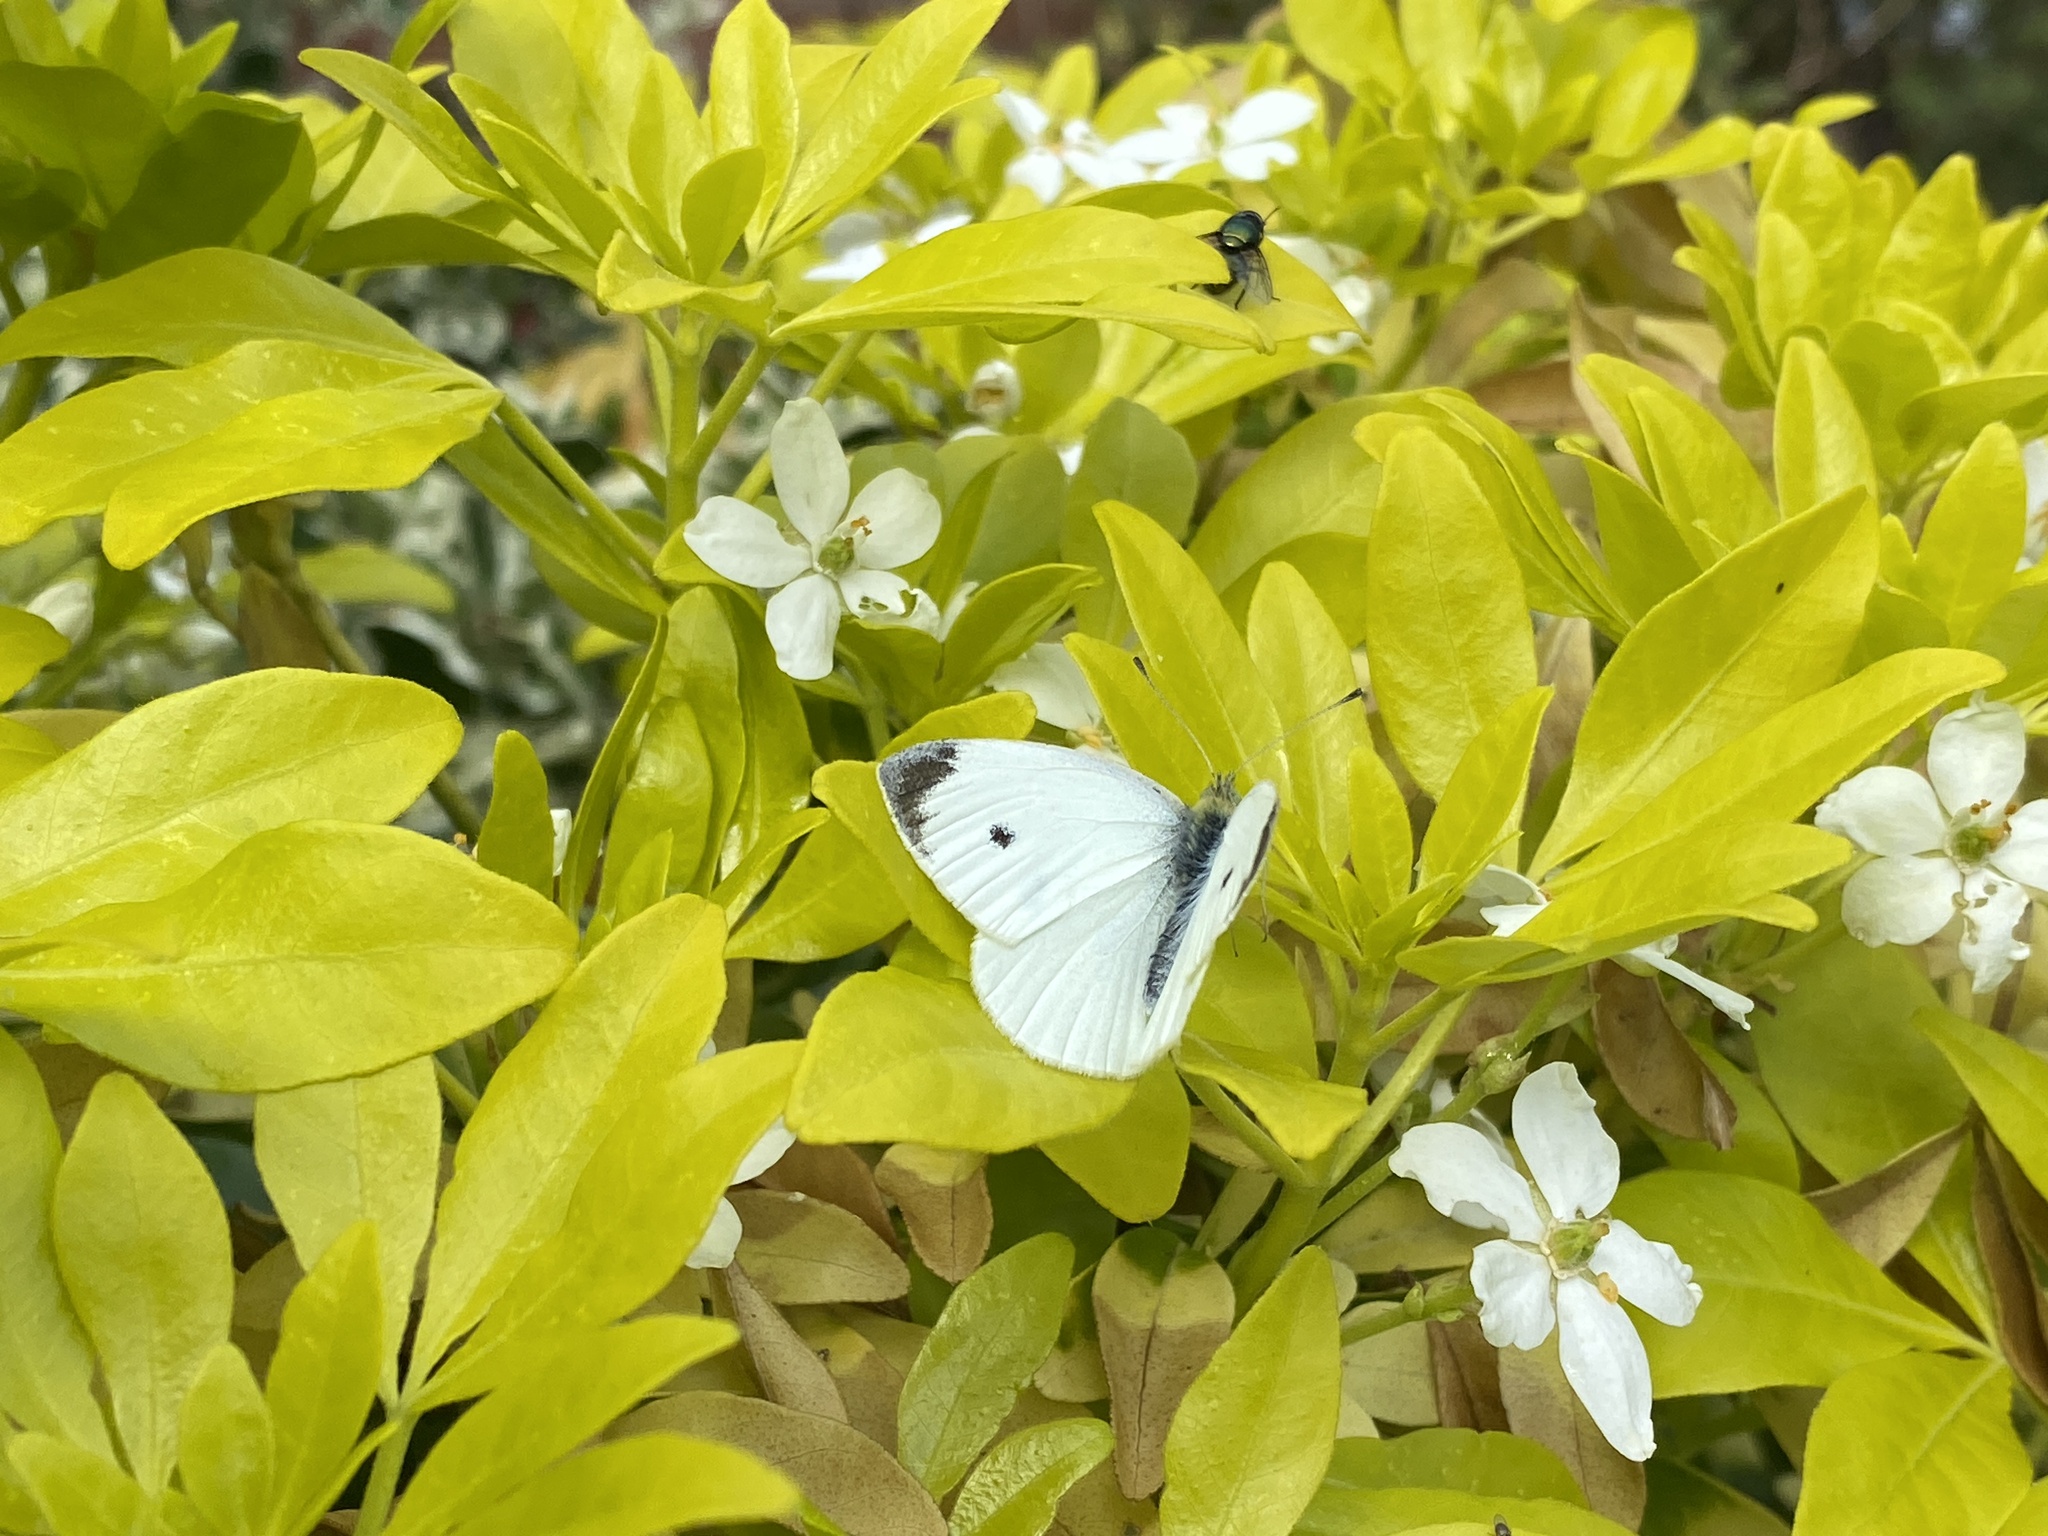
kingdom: Animalia
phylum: Arthropoda
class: Insecta
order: Lepidoptera
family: Pieridae
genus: Pieris
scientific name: Pieris rapae
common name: Small white
